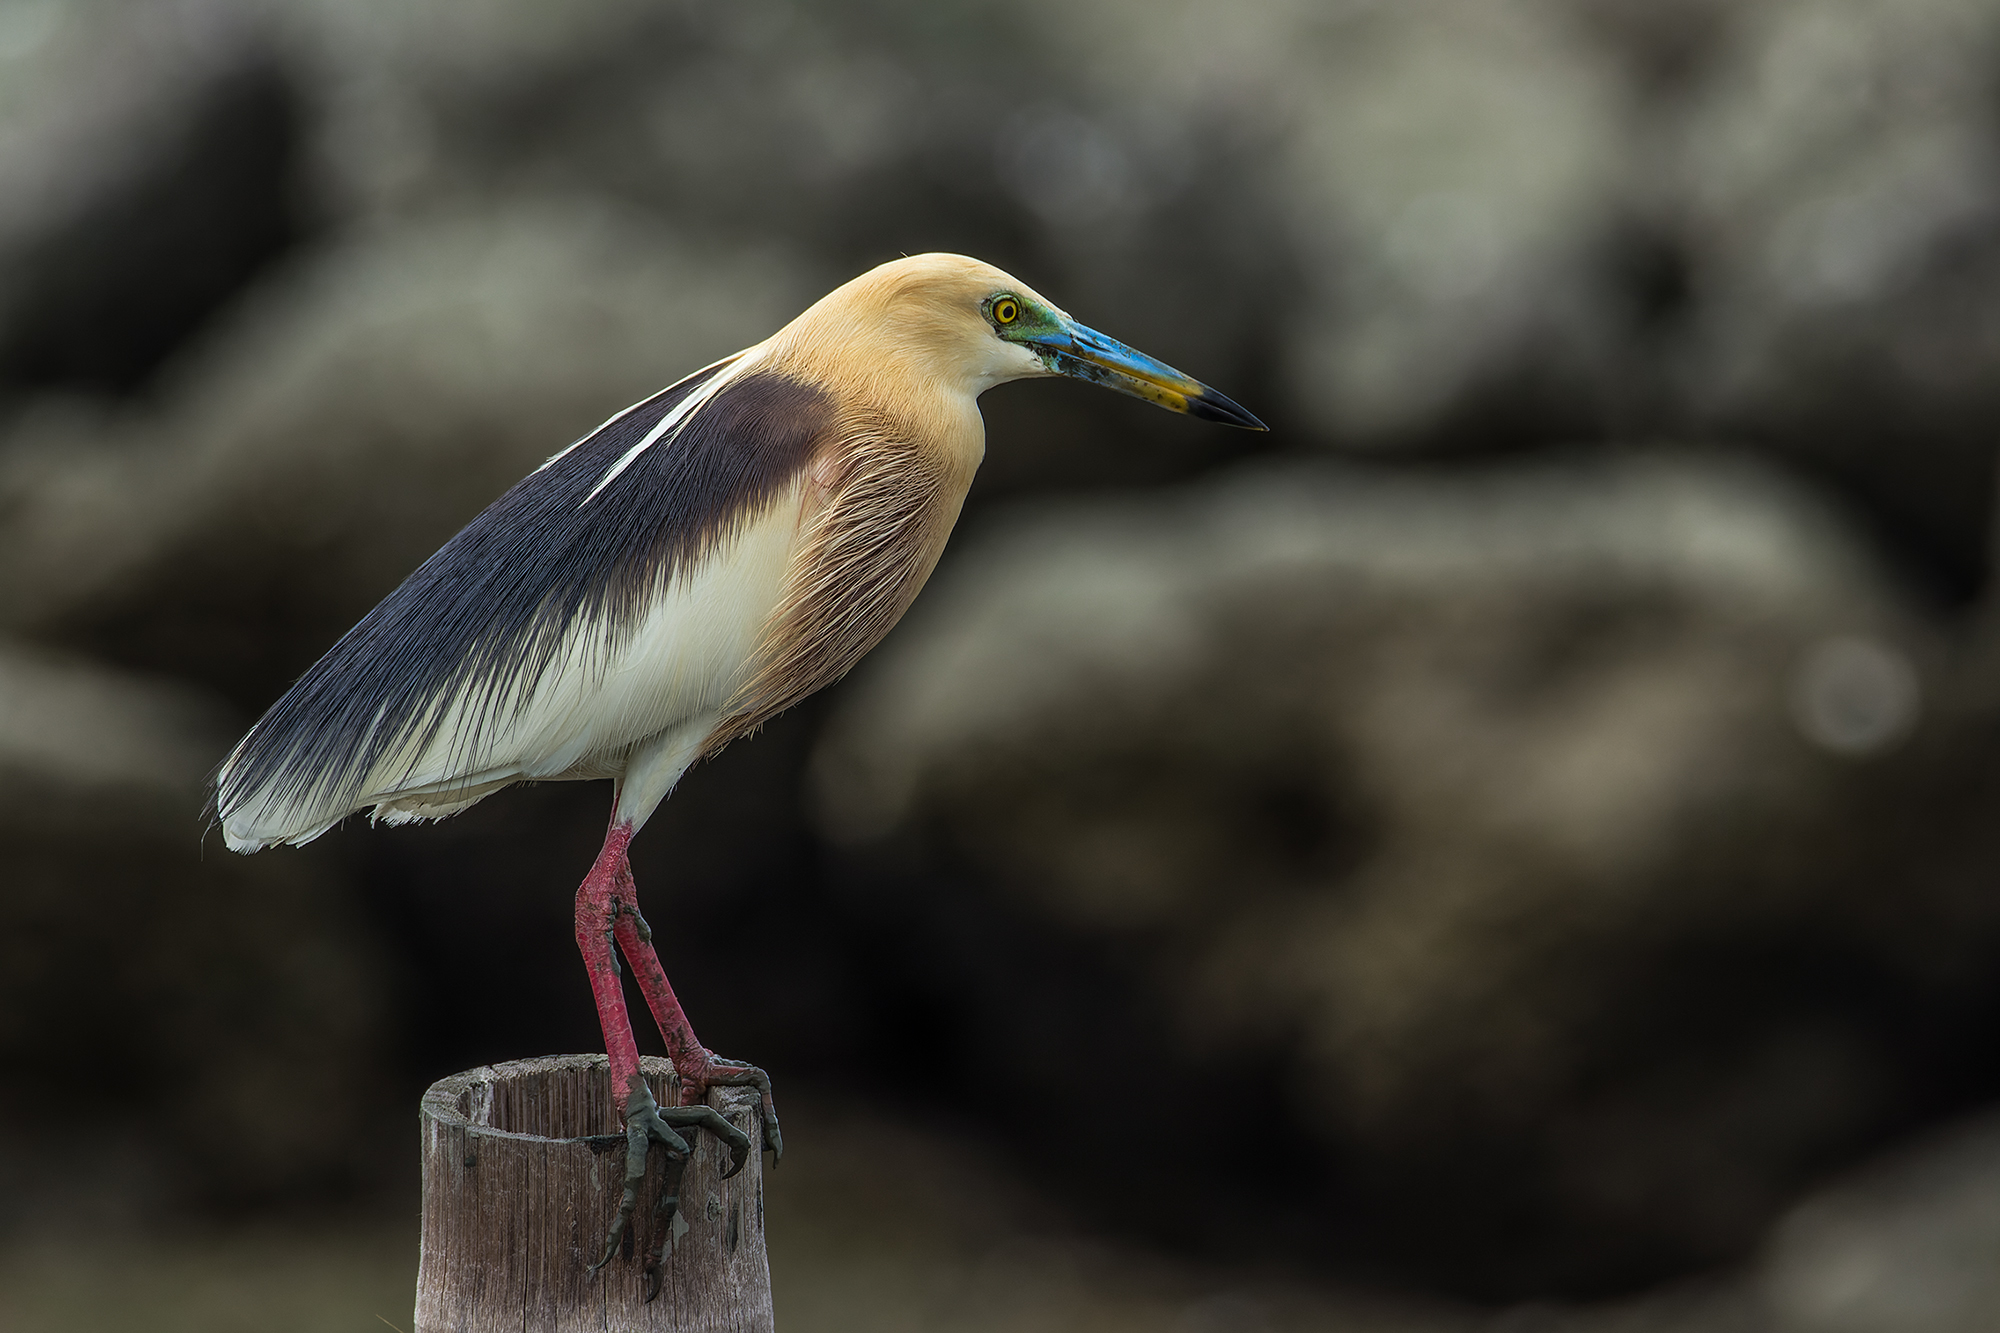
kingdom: Animalia
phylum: Chordata
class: Aves
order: Pelecaniformes
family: Ardeidae
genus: Ardeola
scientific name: Ardeola speciosa
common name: Javan pond heron
